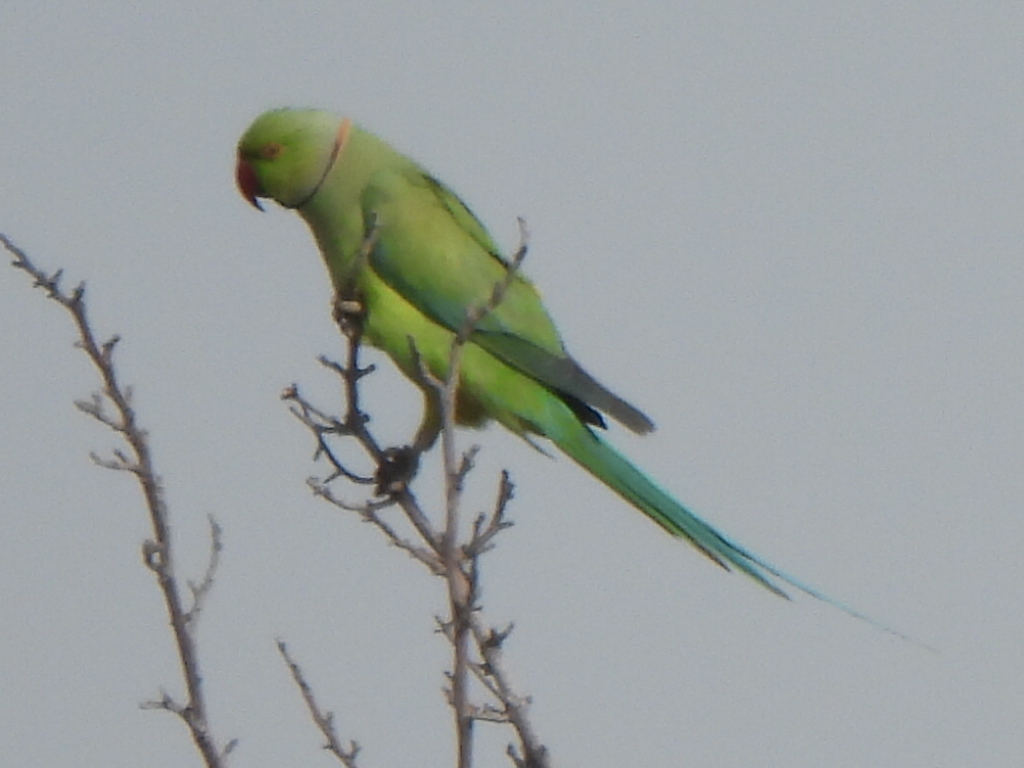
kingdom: Animalia
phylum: Chordata
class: Aves
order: Psittaciformes
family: Psittacidae
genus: Psittacula
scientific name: Psittacula krameri
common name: Rose-ringed parakeet
